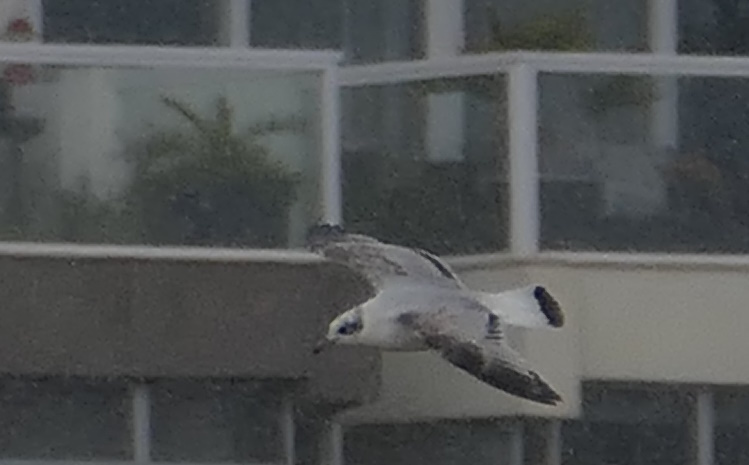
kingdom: Animalia
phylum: Chordata
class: Aves
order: Charadriiformes
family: Laridae
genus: Ichthyaetus
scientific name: Ichthyaetus melanocephalus
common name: Mediterranean gull
